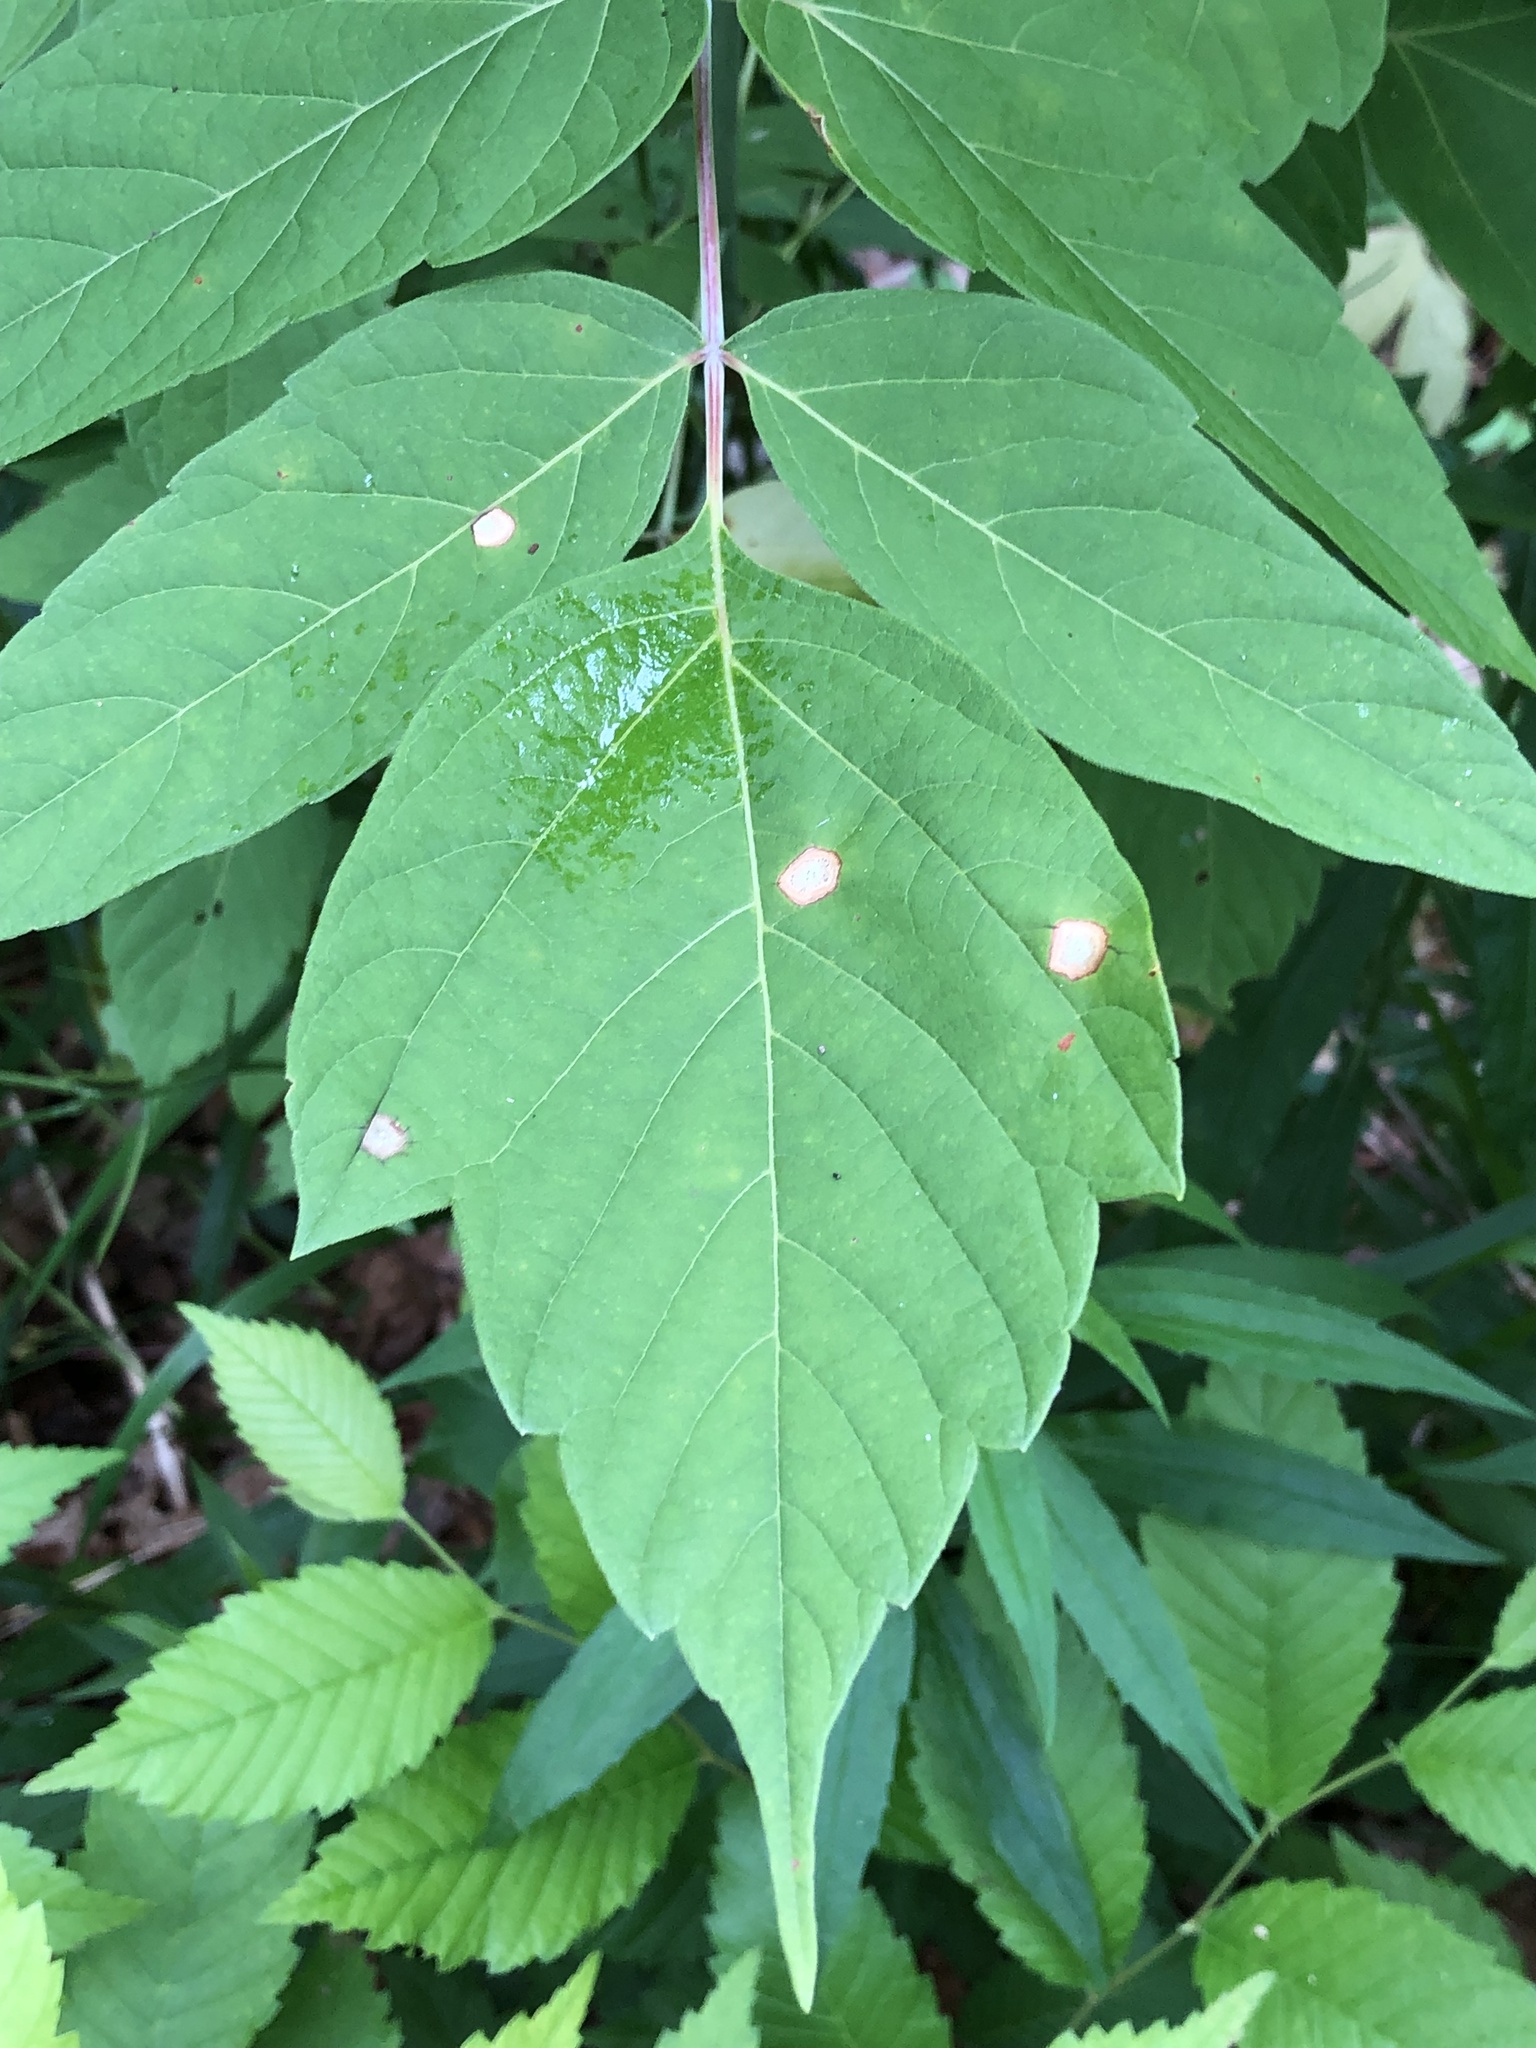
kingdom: Plantae
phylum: Tracheophyta
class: Magnoliopsida
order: Sapindales
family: Sapindaceae
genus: Acer
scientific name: Acer negundo
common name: Ashleaf maple
